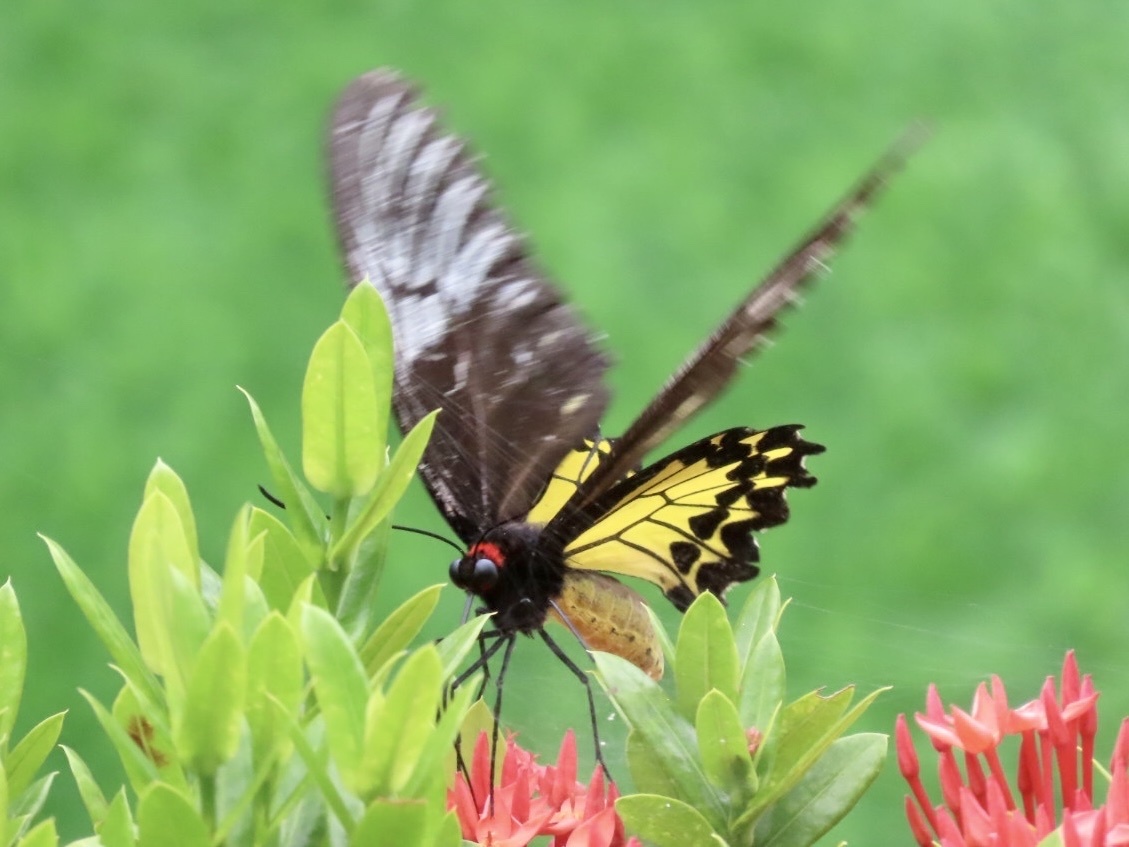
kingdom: Animalia
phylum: Arthropoda
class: Insecta
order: Lepidoptera
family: Papilionidae
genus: Troides
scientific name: Troides helena
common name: Common birdwing
